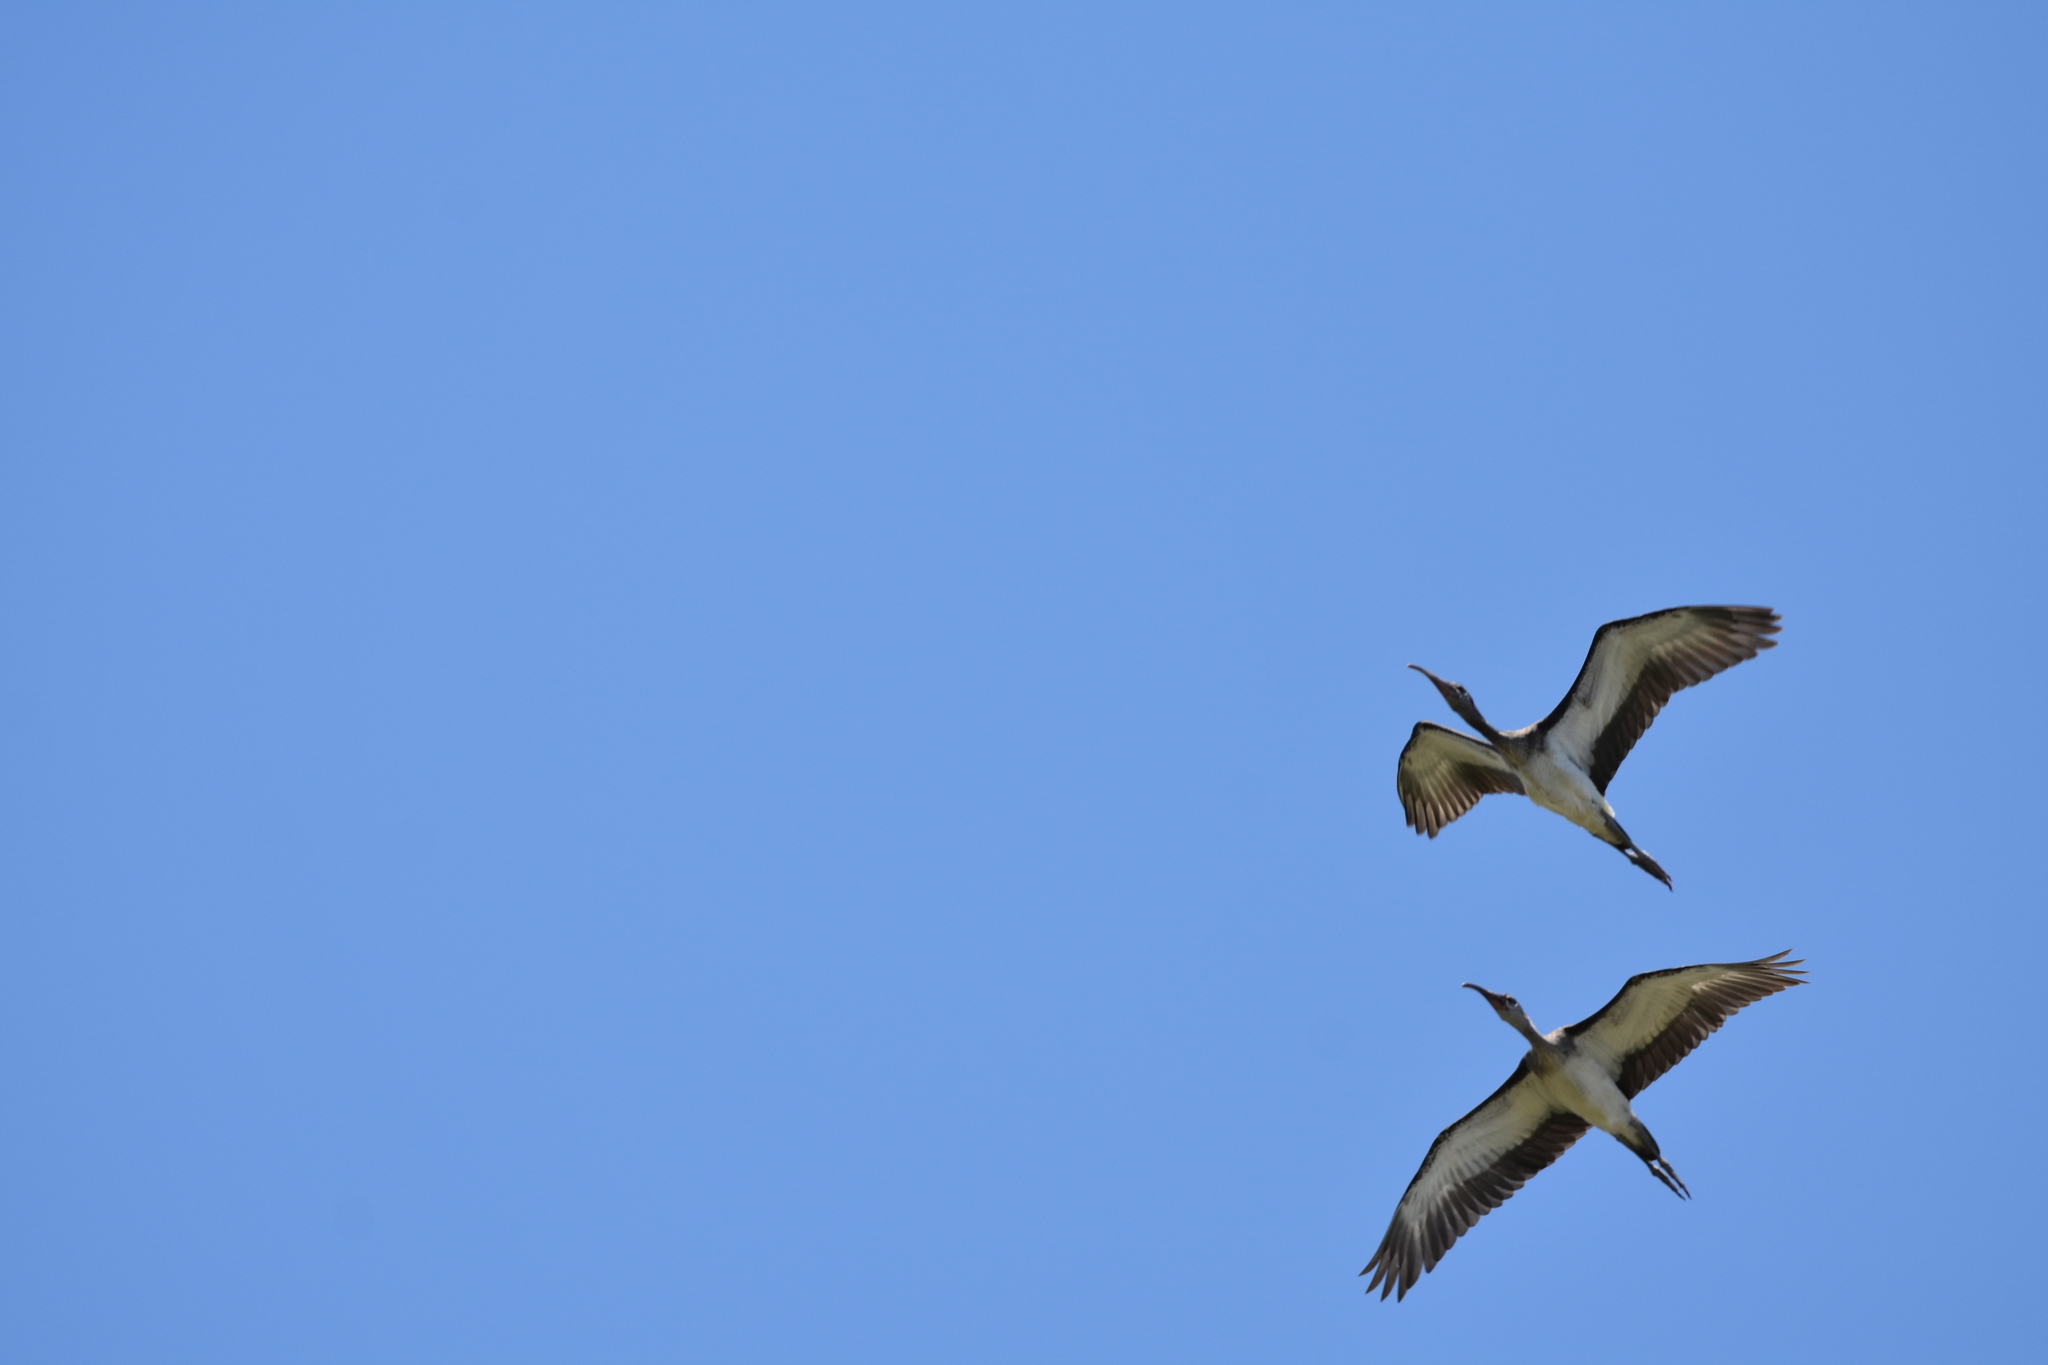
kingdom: Animalia
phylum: Chordata
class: Aves
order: Pelecaniformes
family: Threskiornithidae
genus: Eudocimus
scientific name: Eudocimus albus
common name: White ibis
